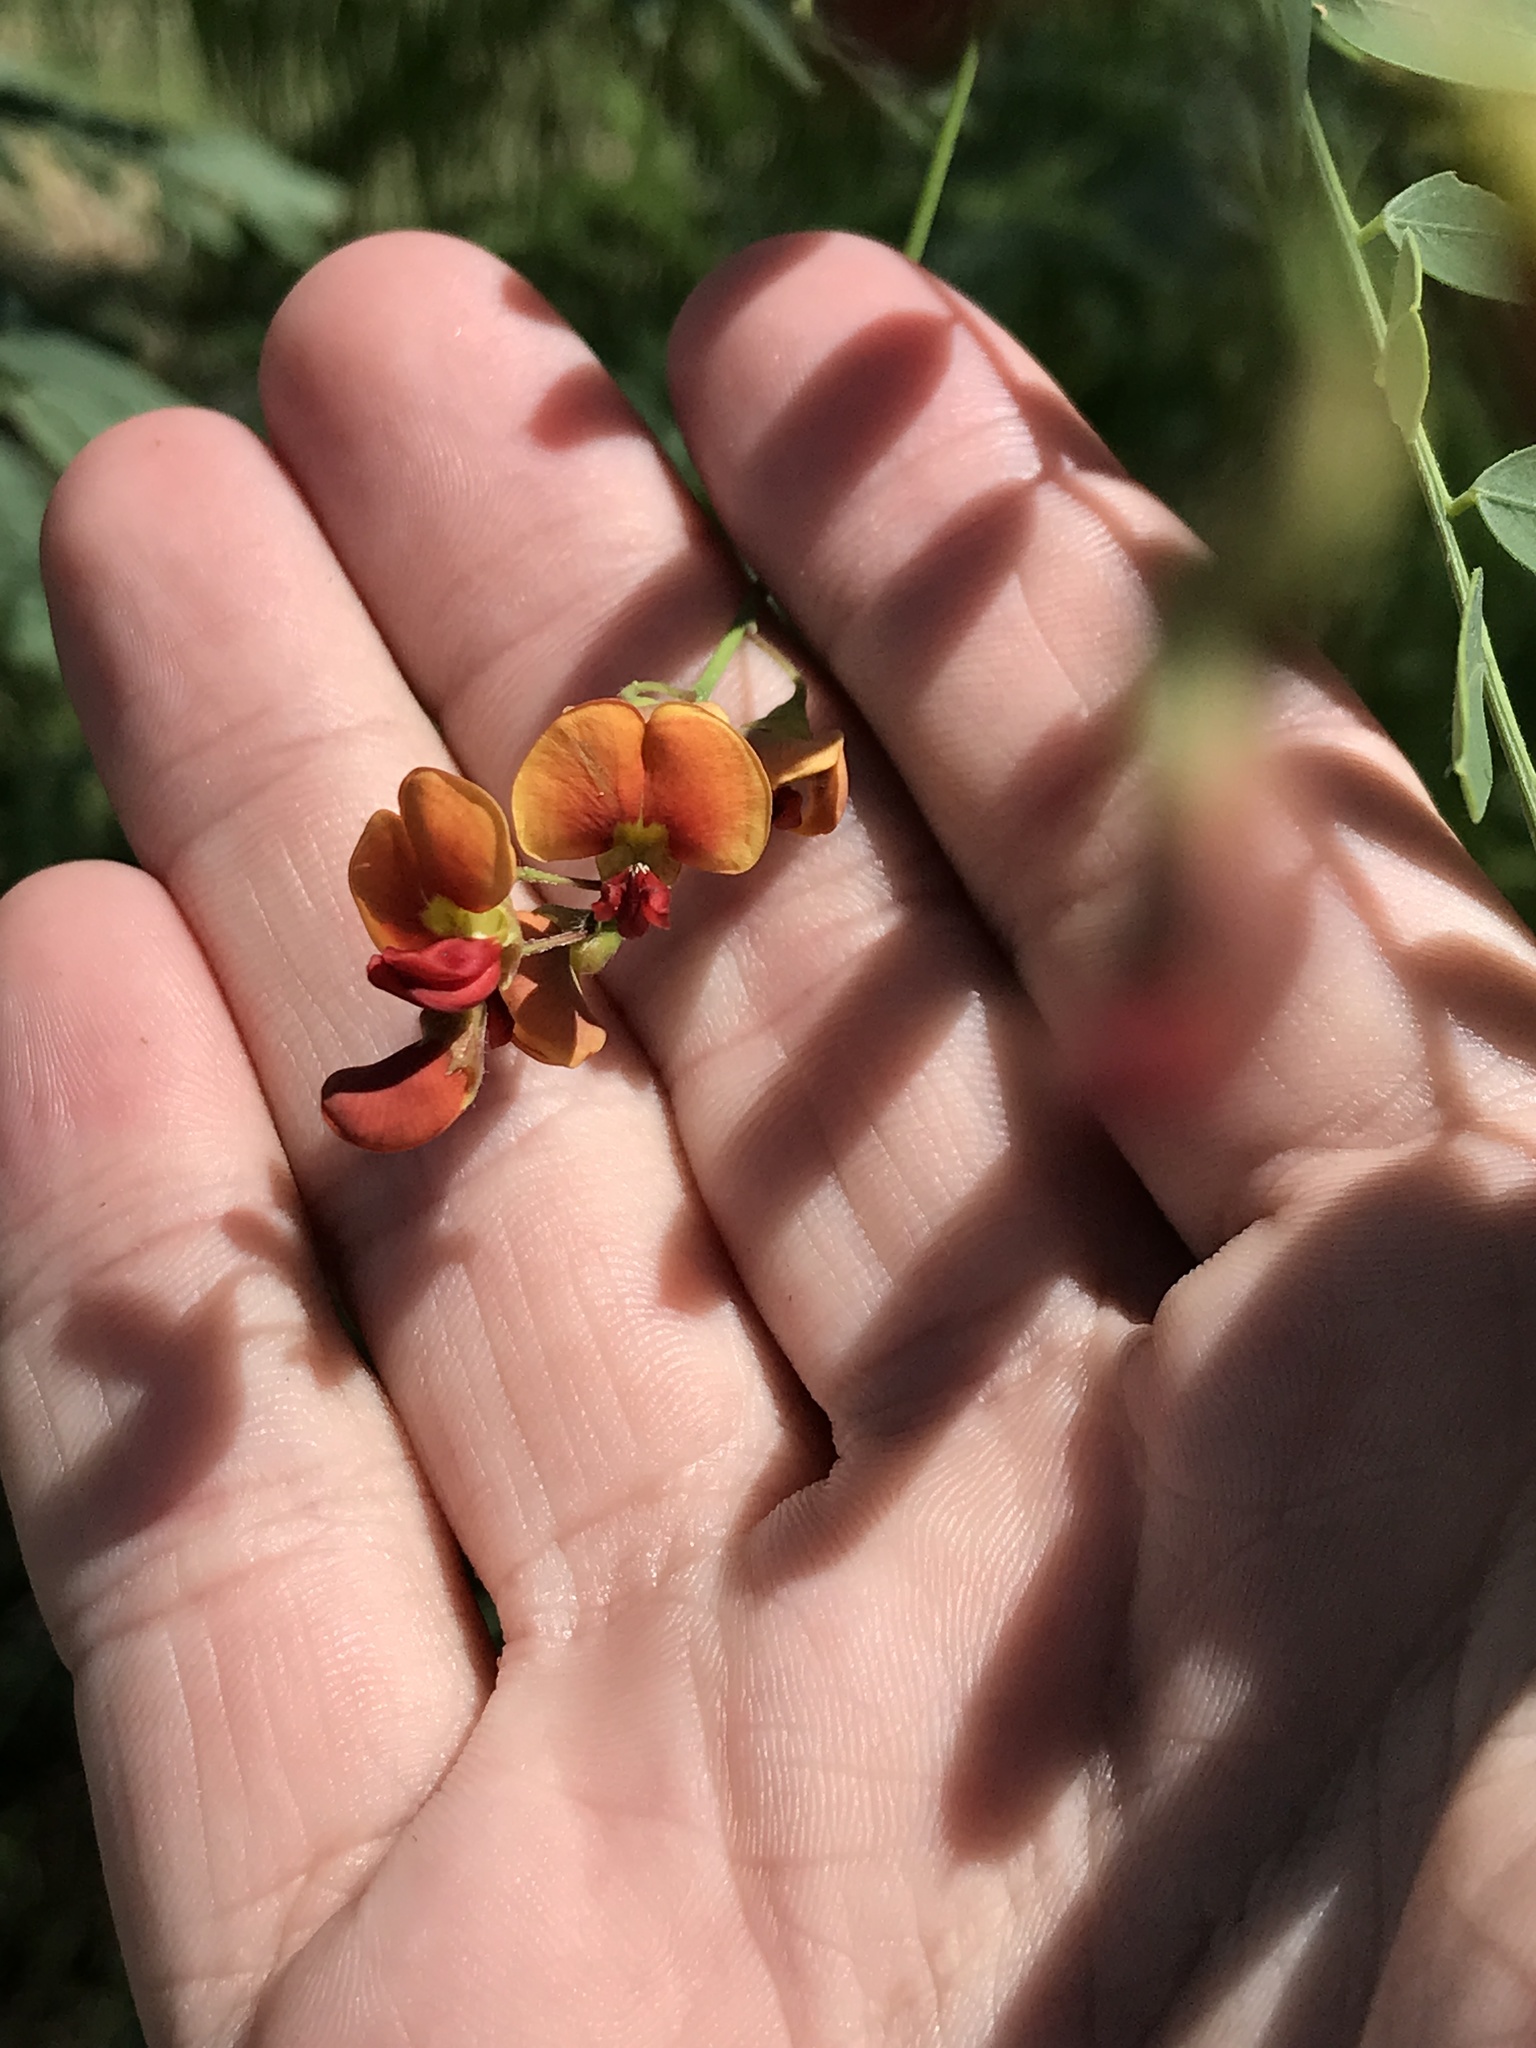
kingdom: Plantae
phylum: Tracheophyta
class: Magnoliopsida
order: Fabales
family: Fabaceae
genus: Sesbania
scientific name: Sesbania vesicaria
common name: Bagpod
